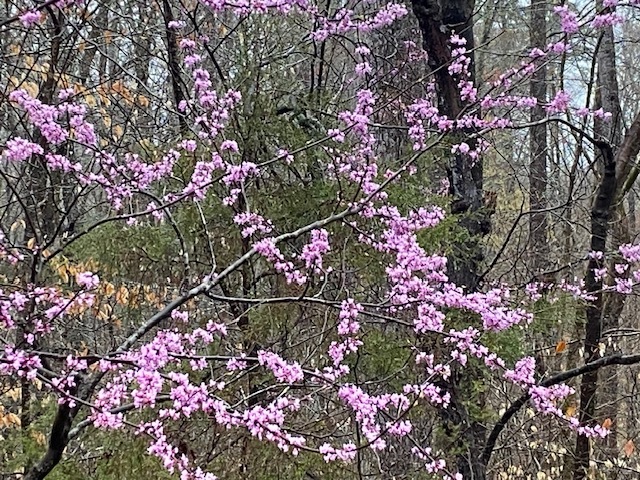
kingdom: Plantae
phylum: Tracheophyta
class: Magnoliopsida
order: Fabales
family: Fabaceae
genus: Cercis
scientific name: Cercis canadensis
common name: Eastern redbud
